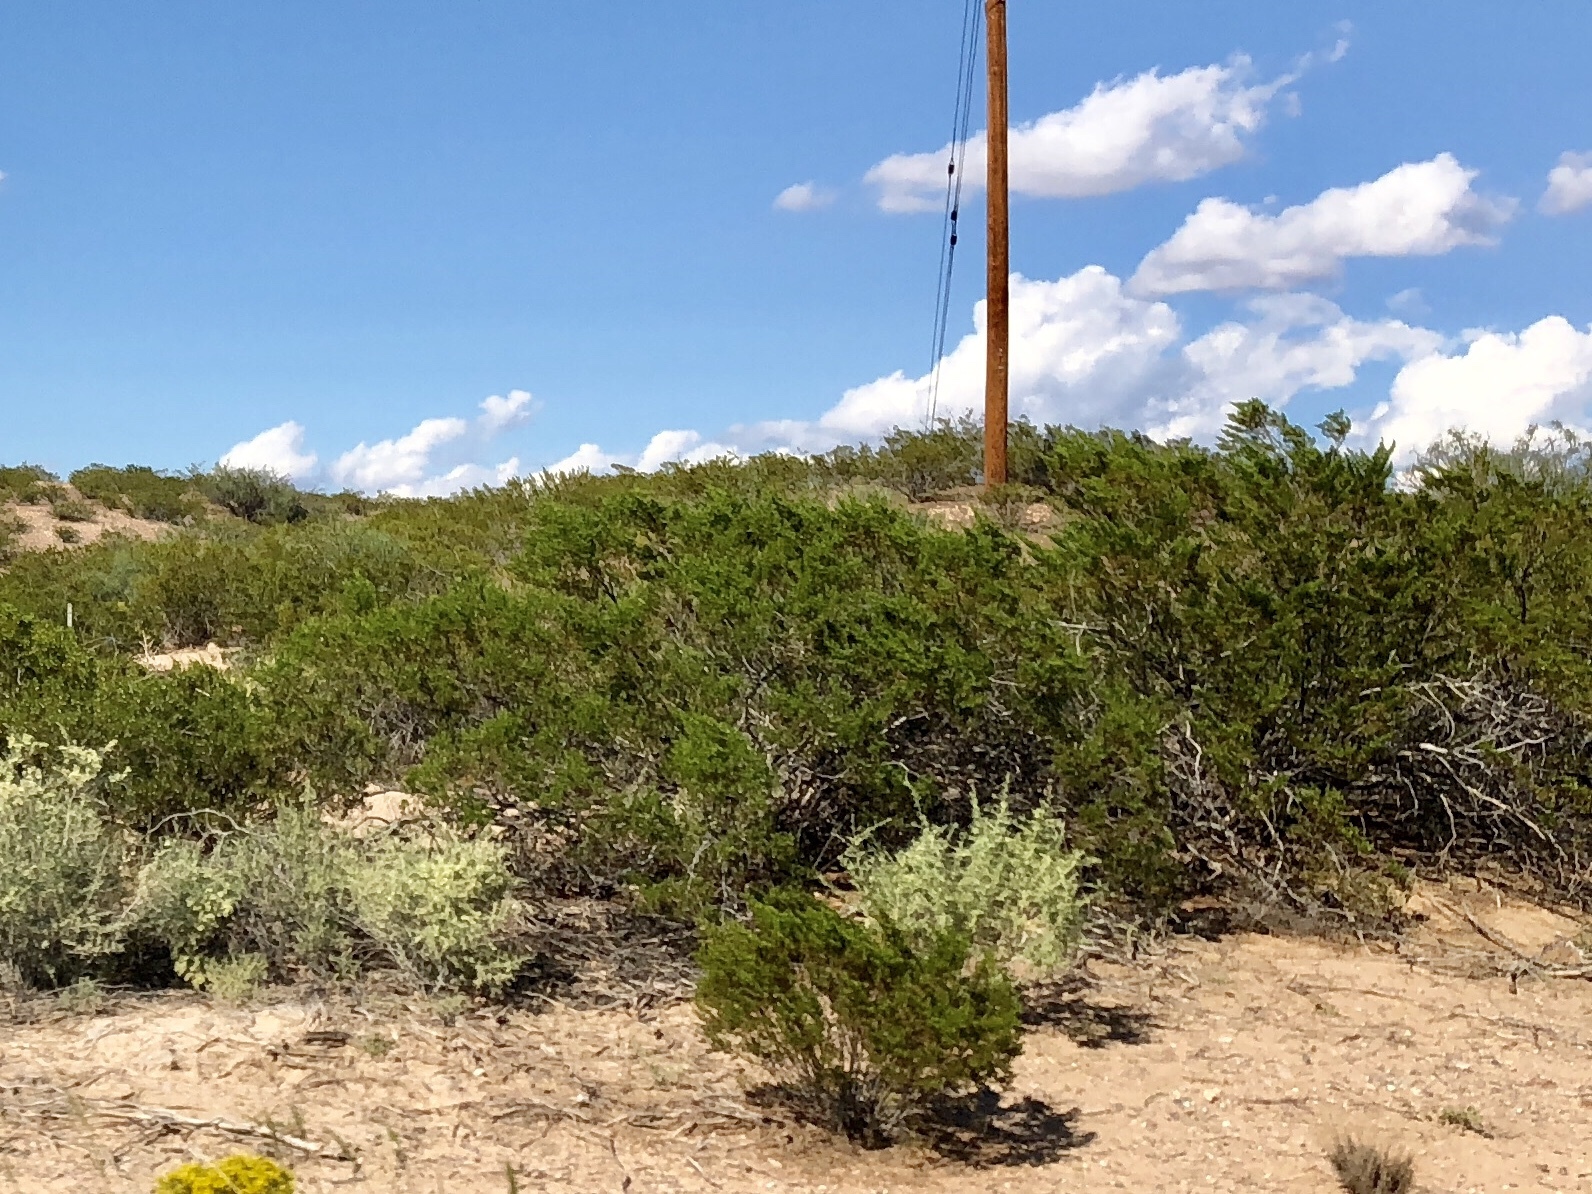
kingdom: Plantae
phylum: Tracheophyta
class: Magnoliopsida
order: Zygophyllales
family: Zygophyllaceae
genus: Larrea
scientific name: Larrea tridentata
